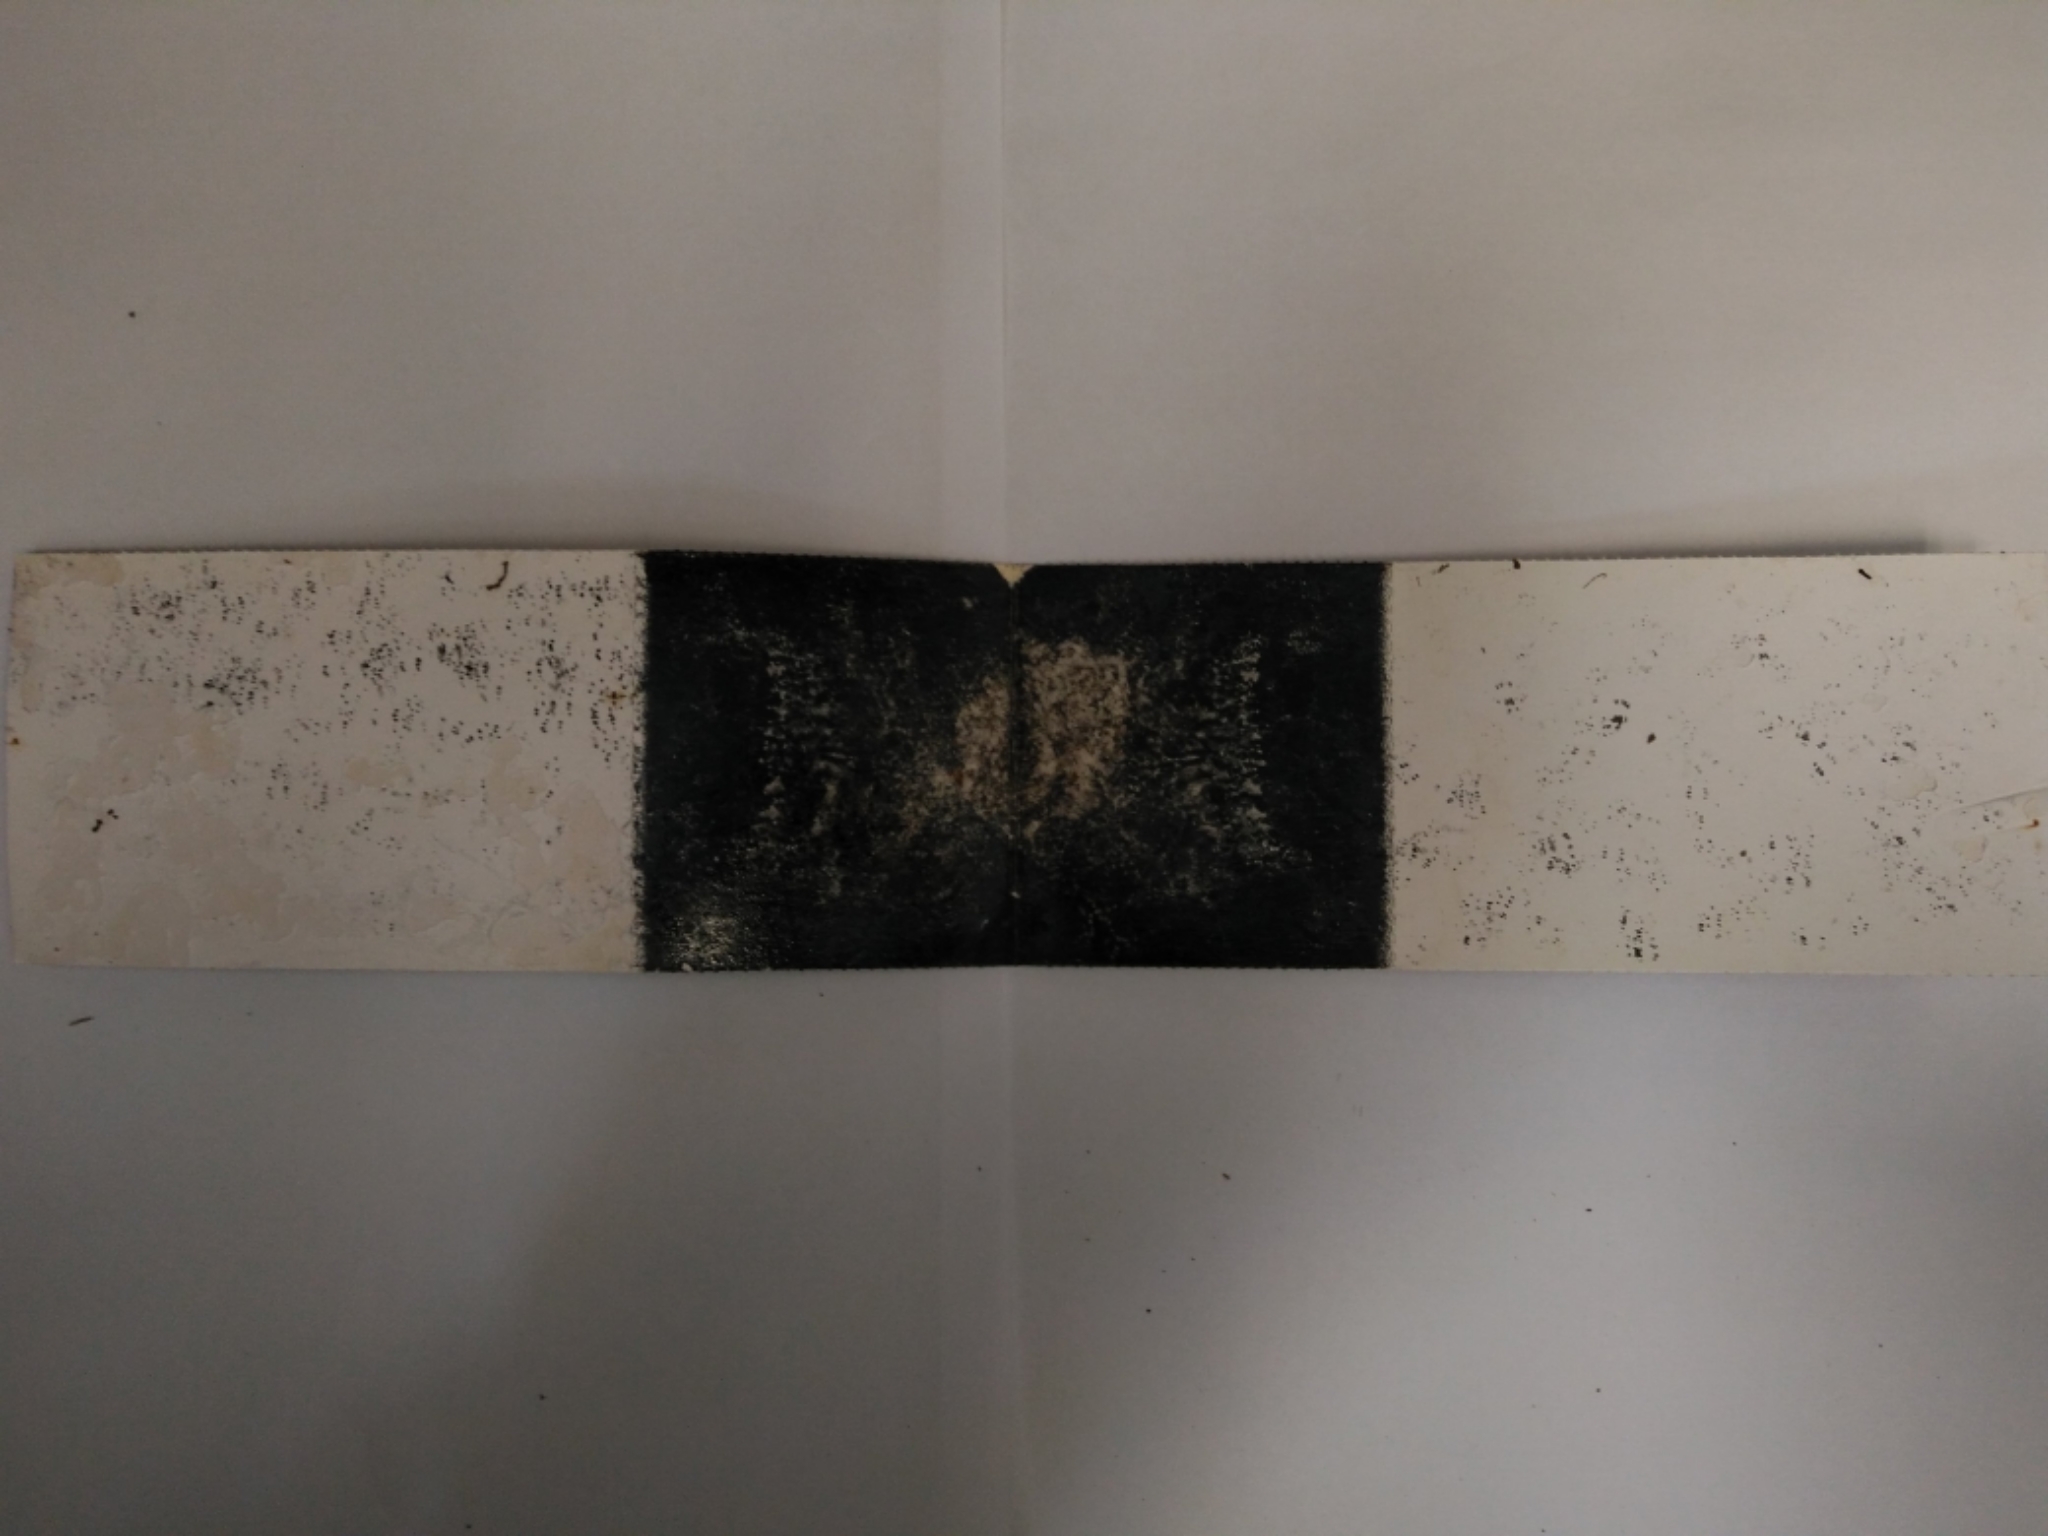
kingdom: Animalia
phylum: Chordata
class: Mammalia
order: Rodentia
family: Muridae
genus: Mus
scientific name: Mus musculus
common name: House mouse
